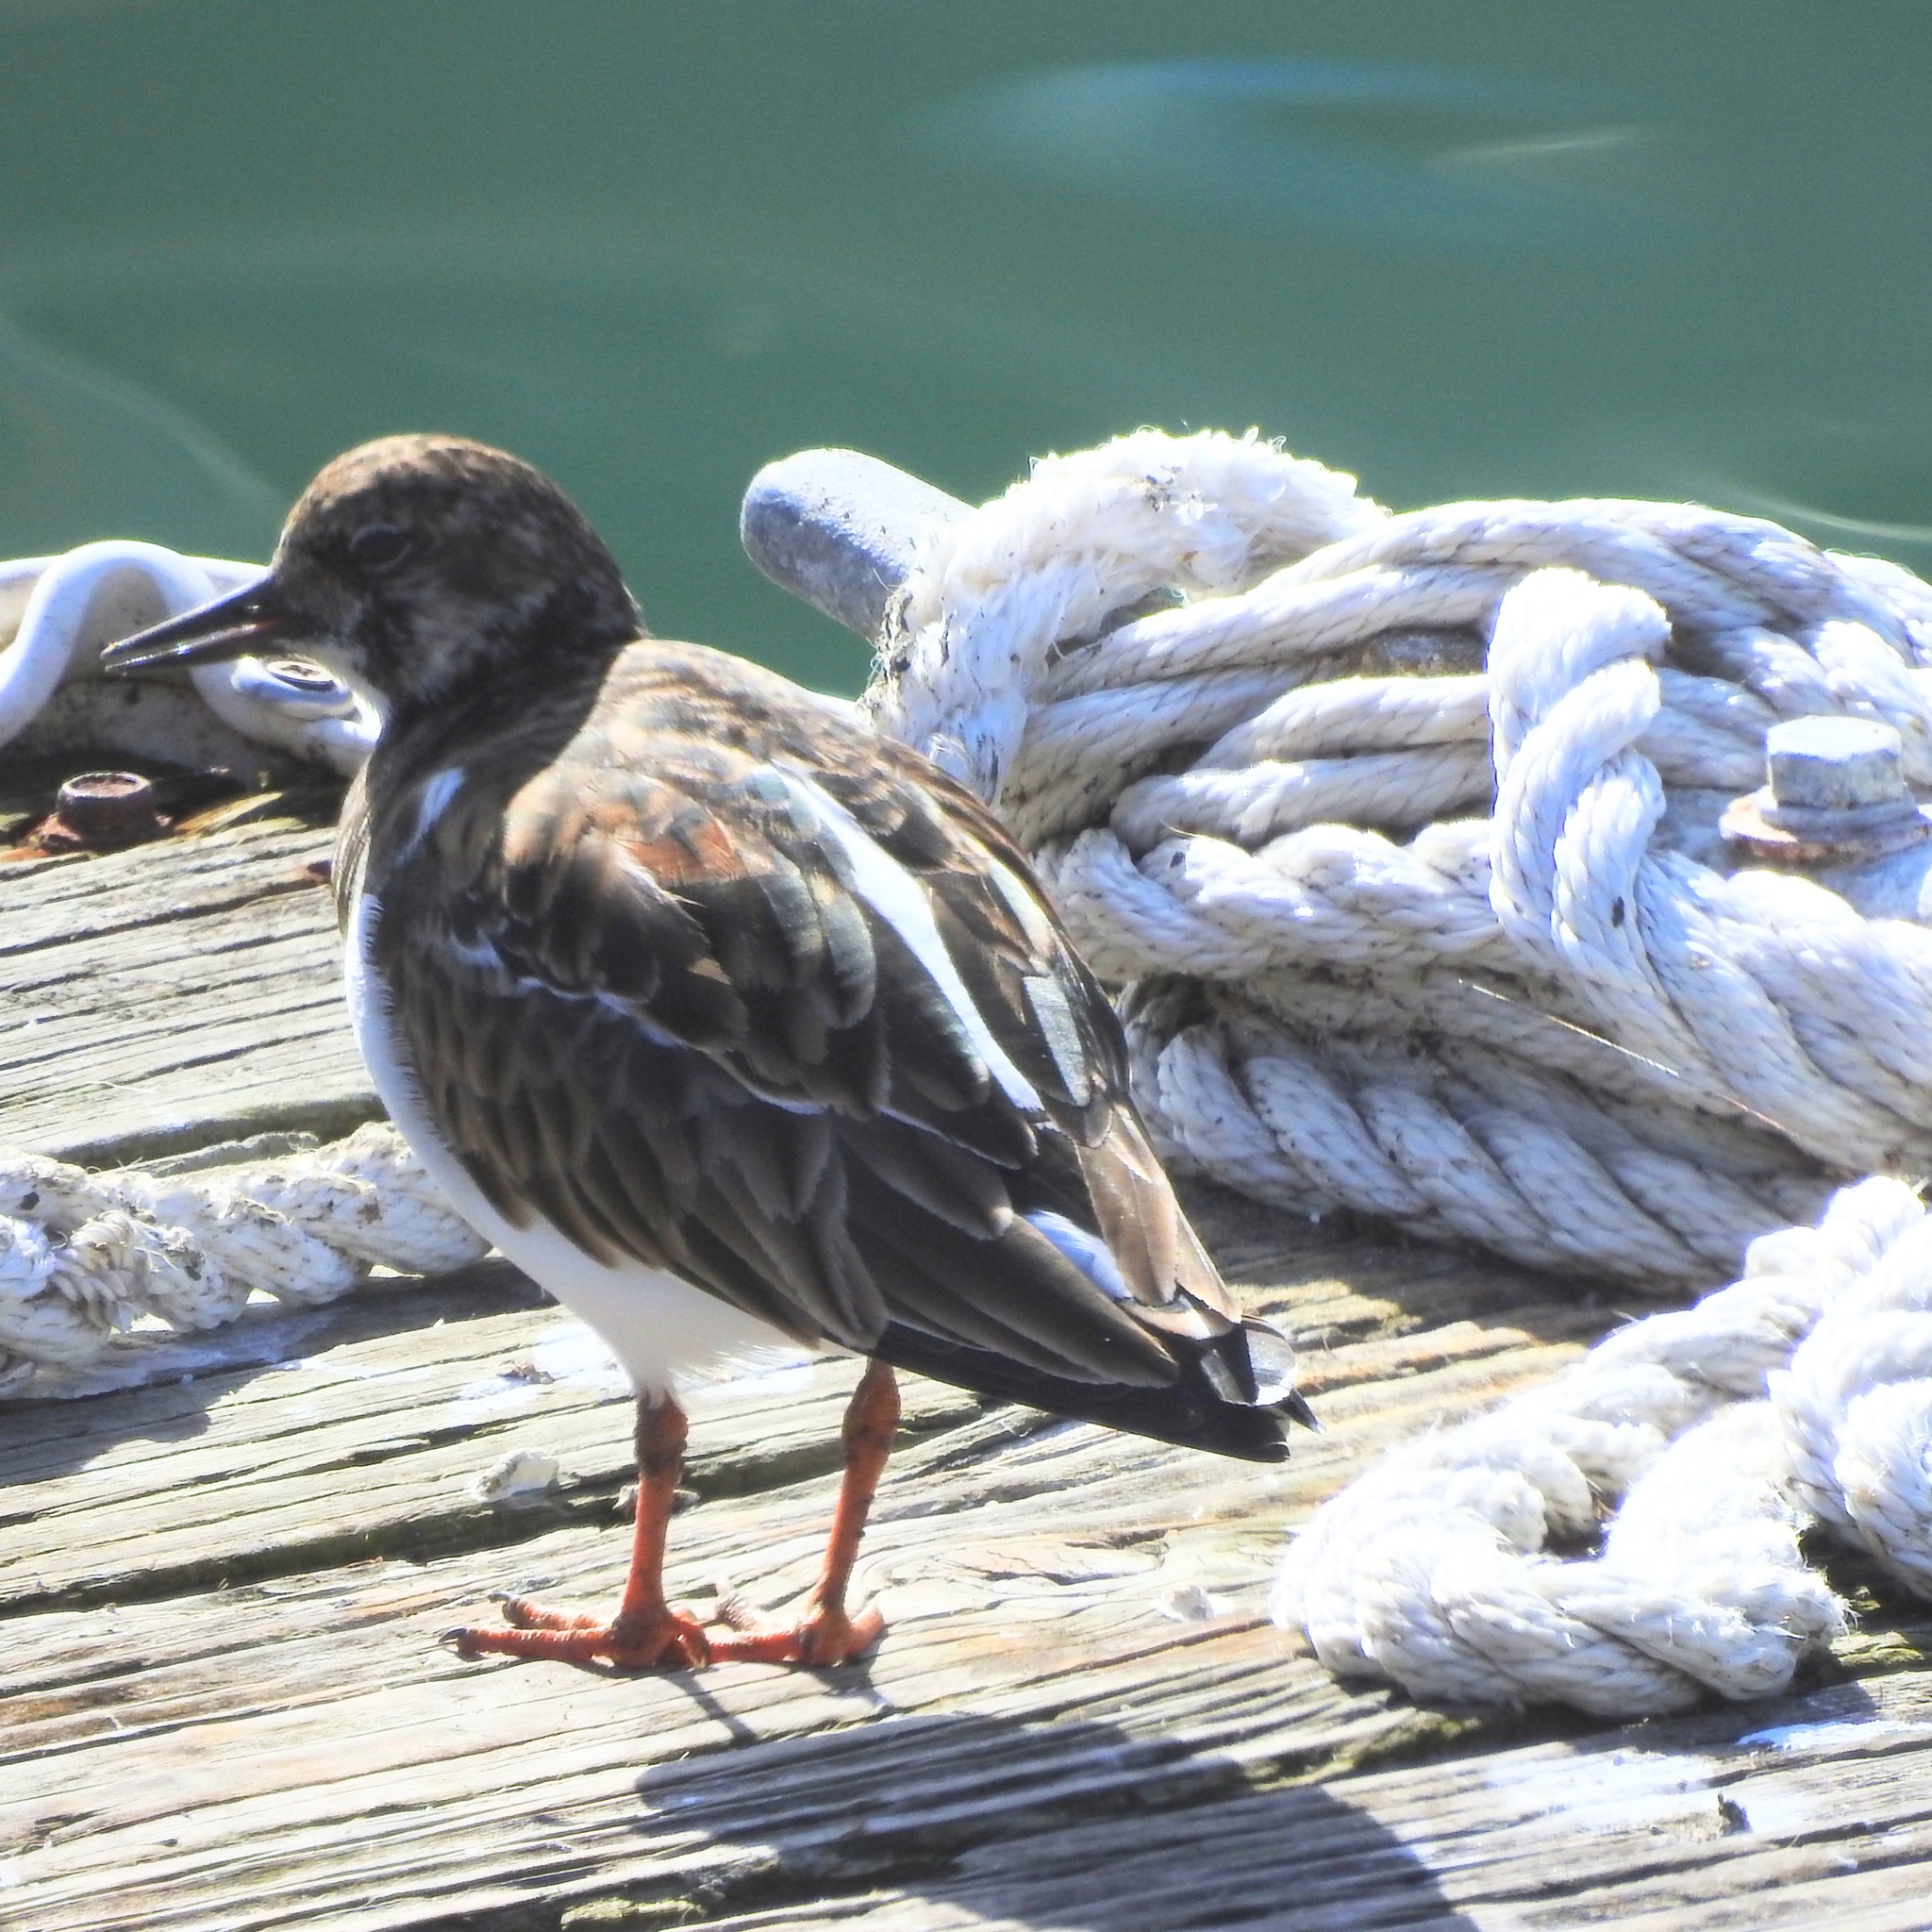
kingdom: Animalia
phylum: Chordata
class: Aves
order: Charadriiformes
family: Scolopacidae
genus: Arenaria
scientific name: Arenaria interpres
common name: Ruddy turnstone
